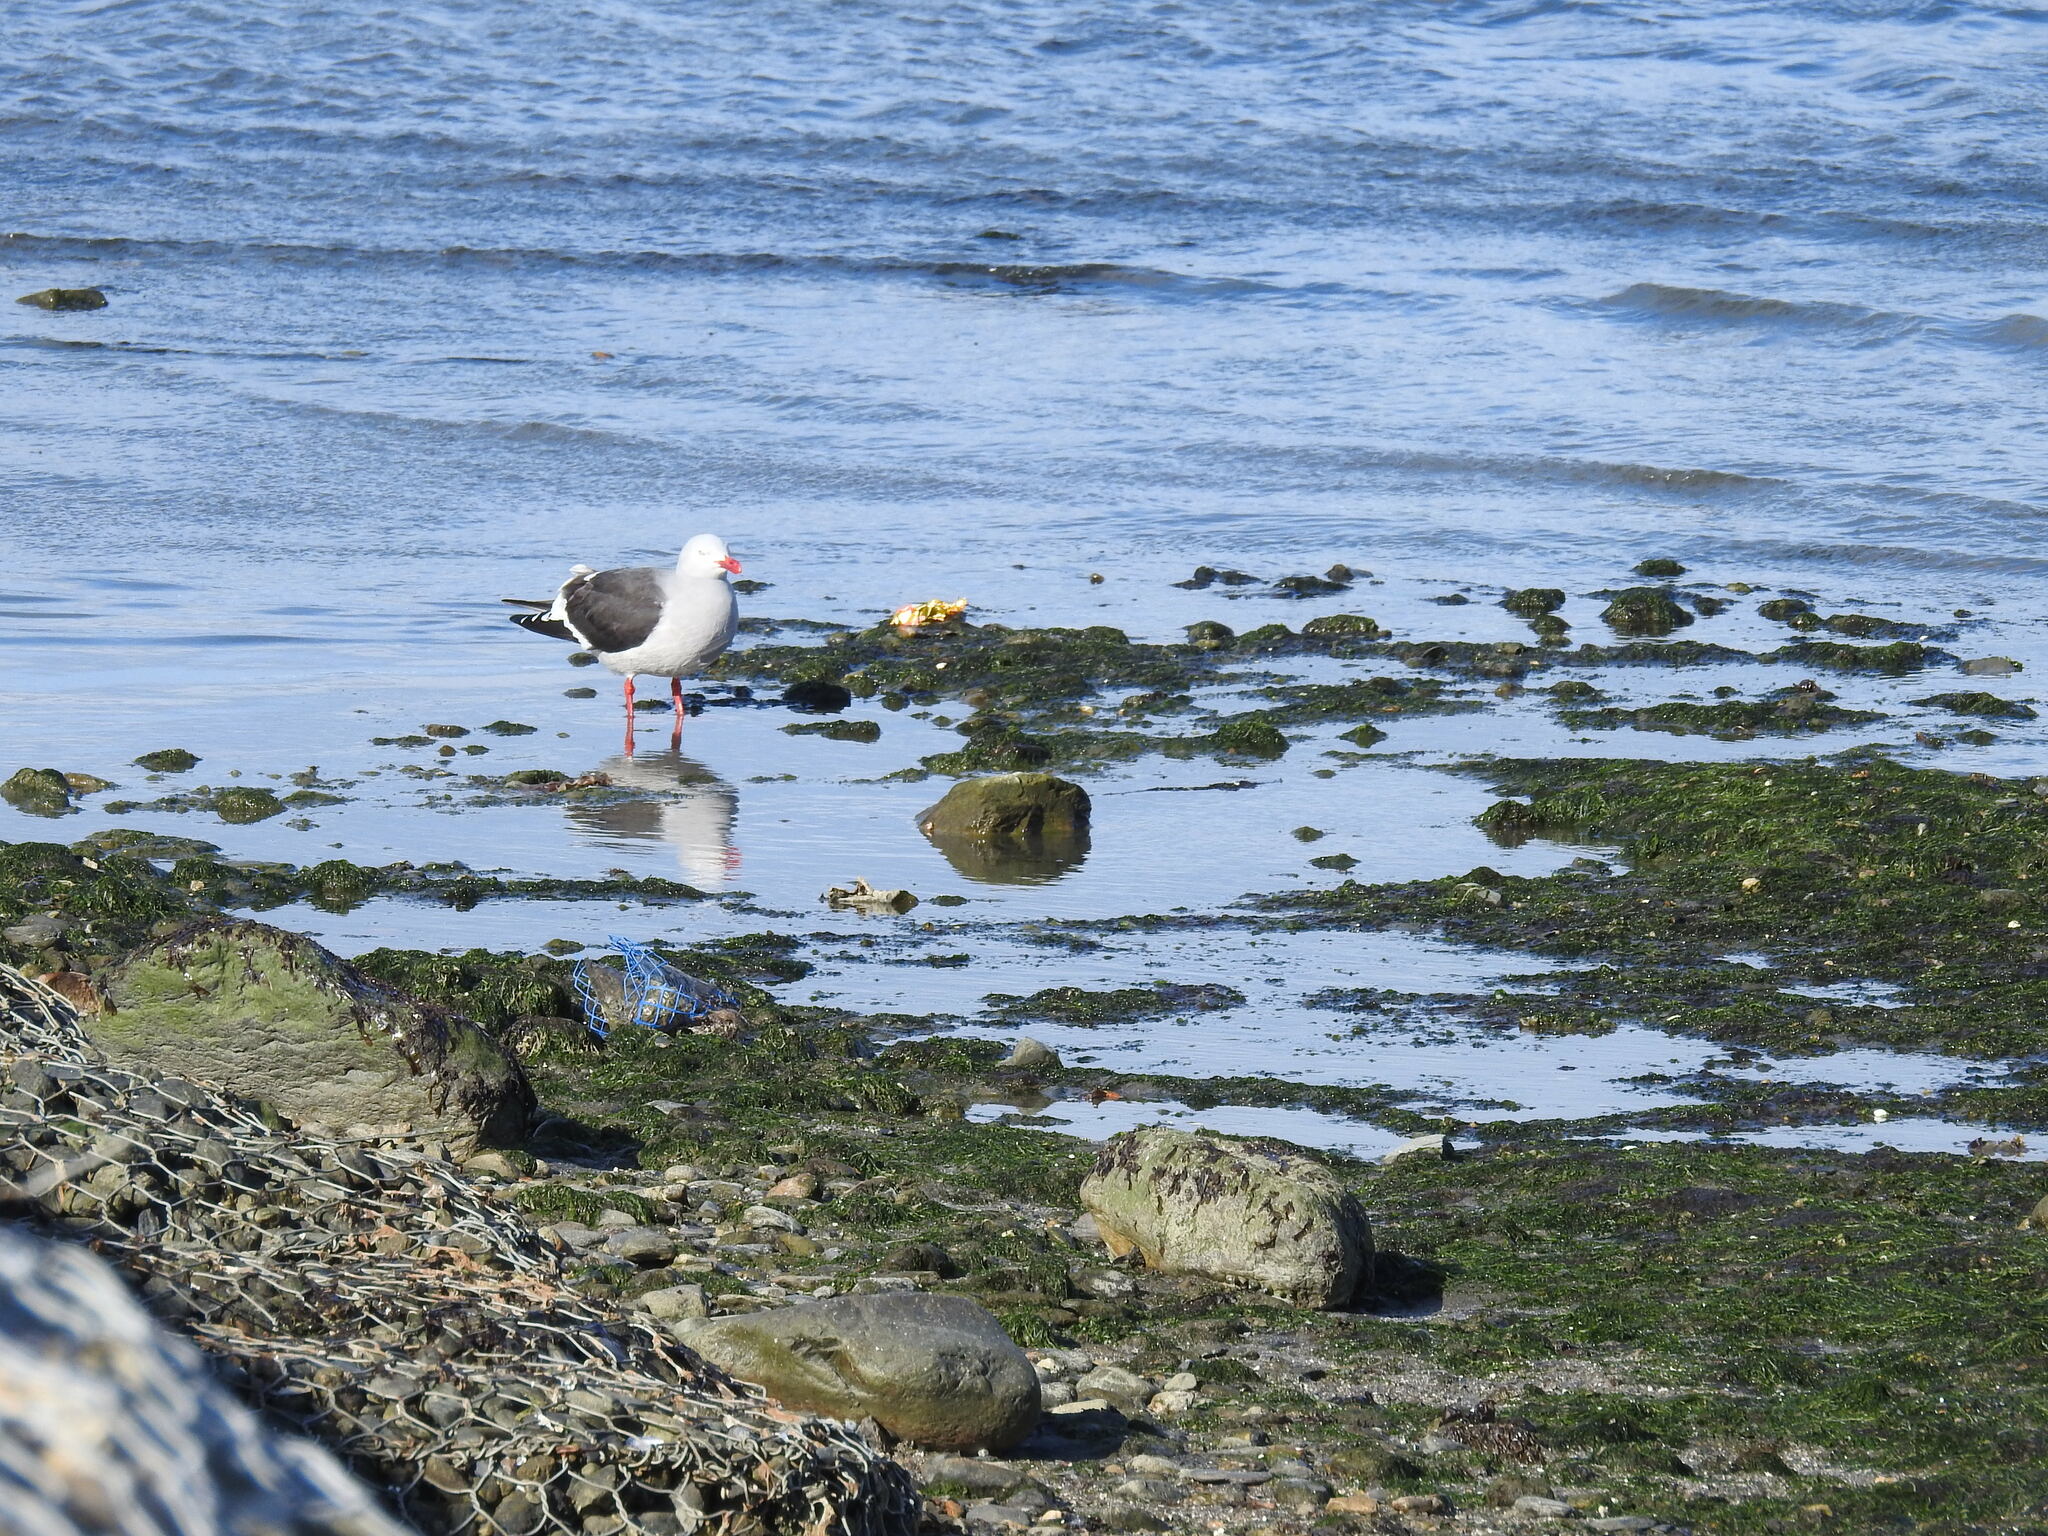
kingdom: Animalia
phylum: Chordata
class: Aves
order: Charadriiformes
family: Laridae
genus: Leucophaeus
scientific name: Leucophaeus scoresbii
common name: Dolphin gull
